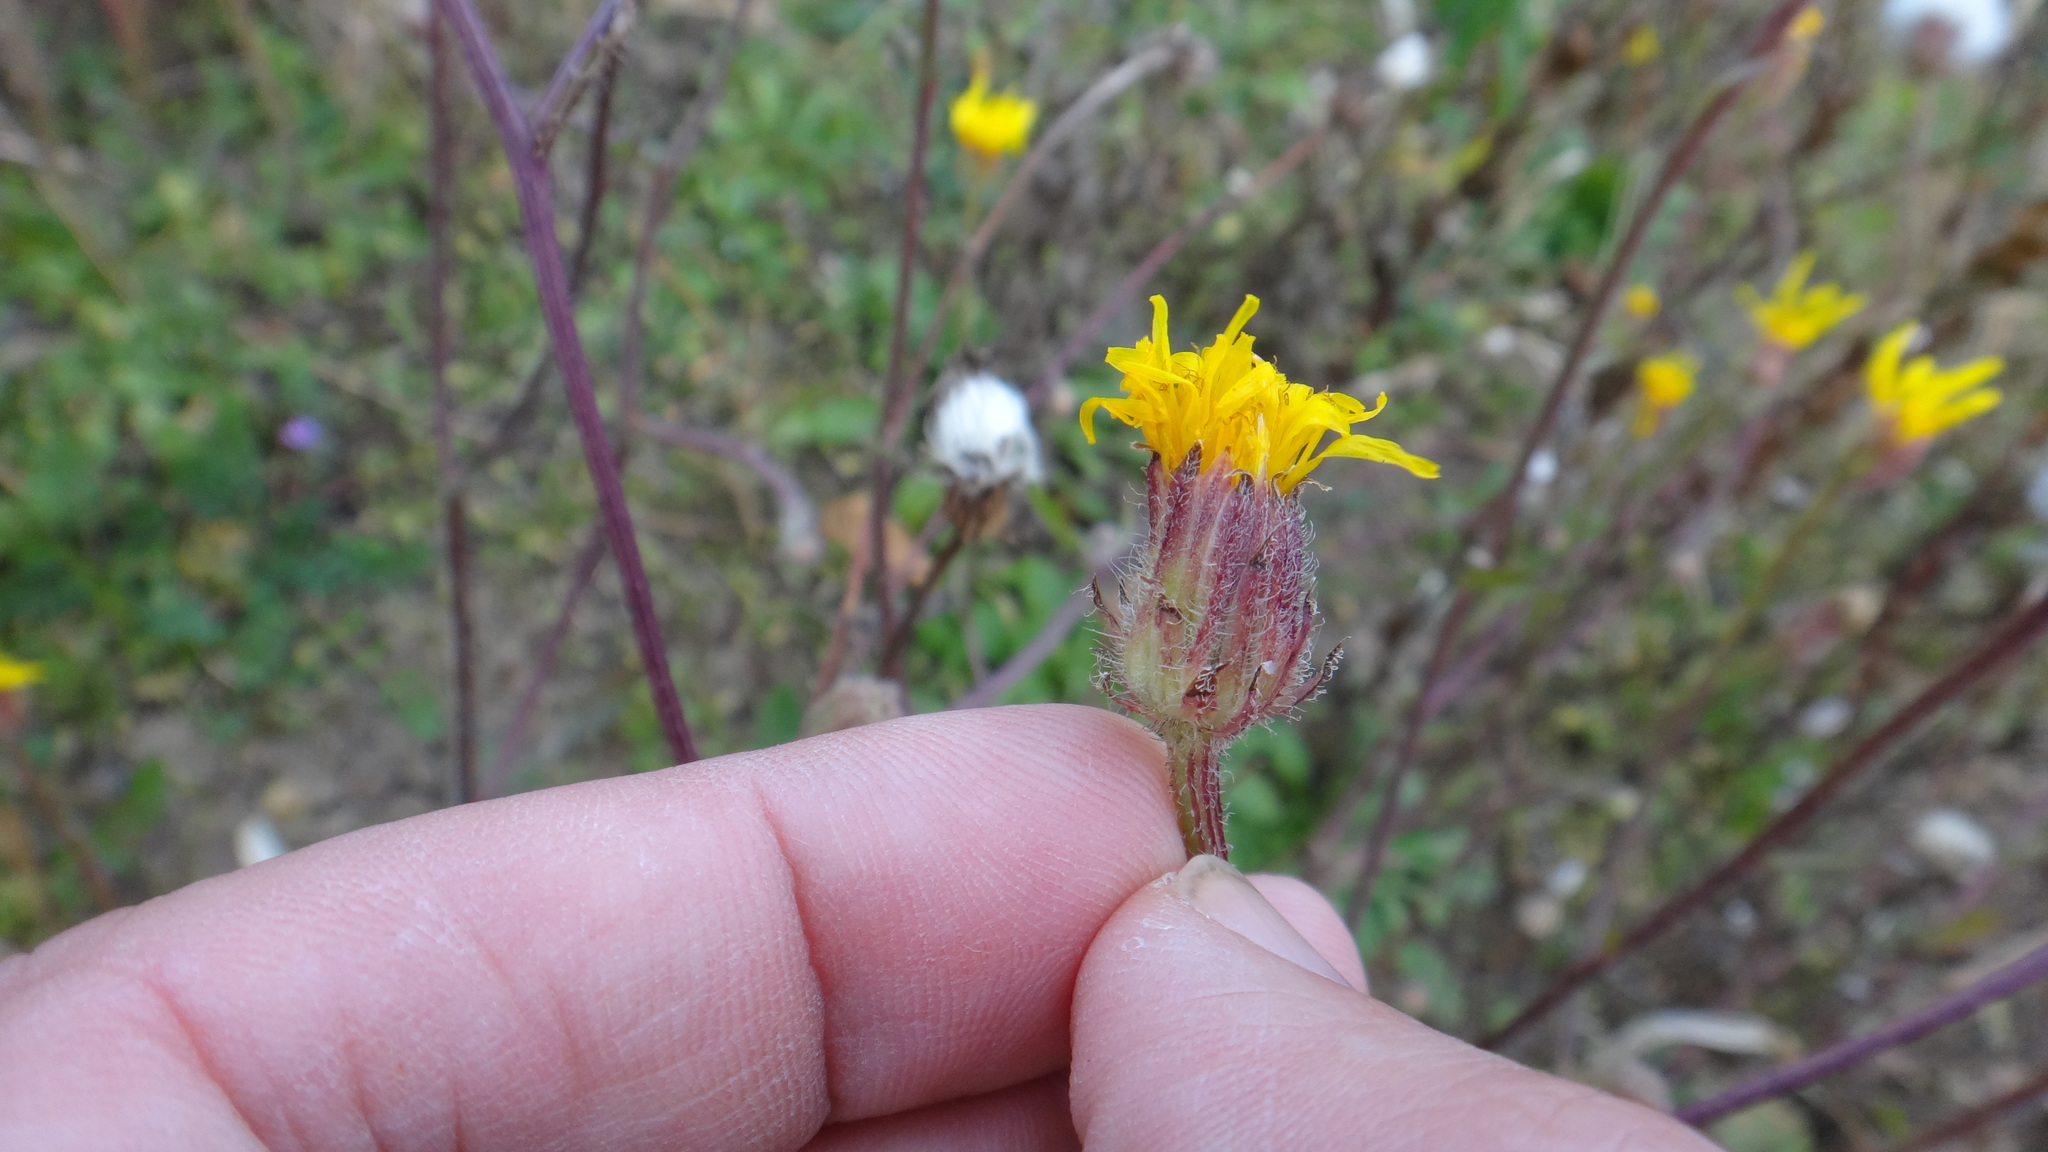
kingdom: Plantae
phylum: Tracheophyta
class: Magnoliopsida
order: Asterales
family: Asteraceae
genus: Crepis
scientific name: Crepis foetida
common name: Stinking hawk's-beard
